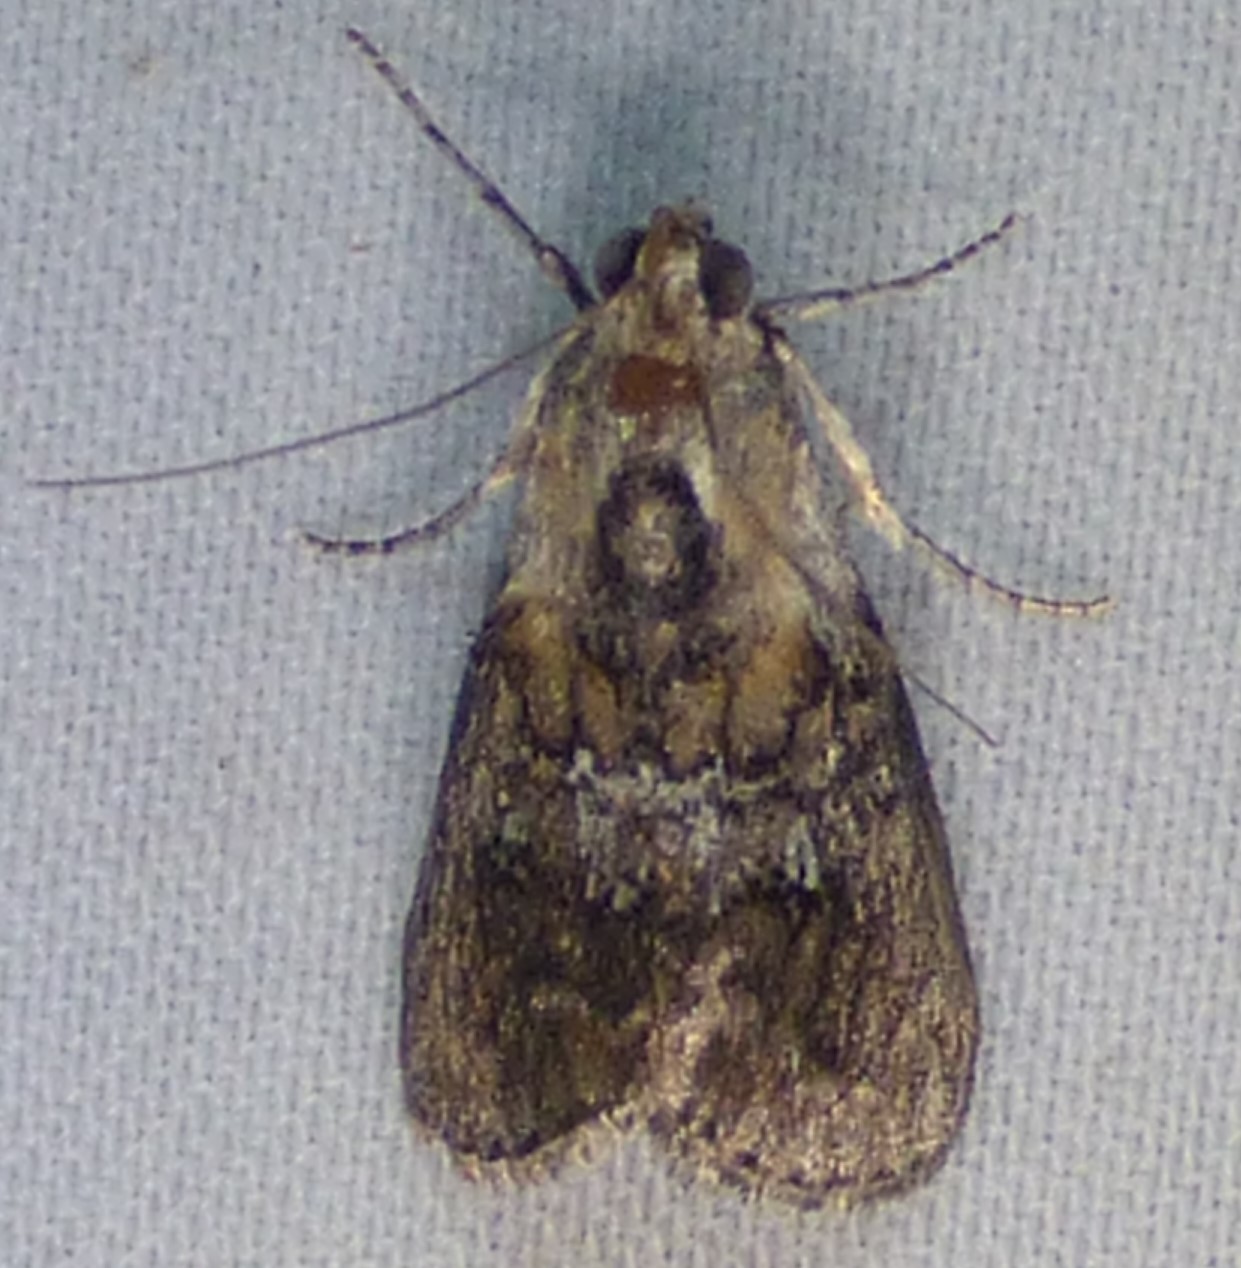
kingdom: Animalia
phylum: Arthropoda
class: Insecta
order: Lepidoptera
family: Pyralidae
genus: Pococera
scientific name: Pococera expandens
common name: Striped oak webworm moth
